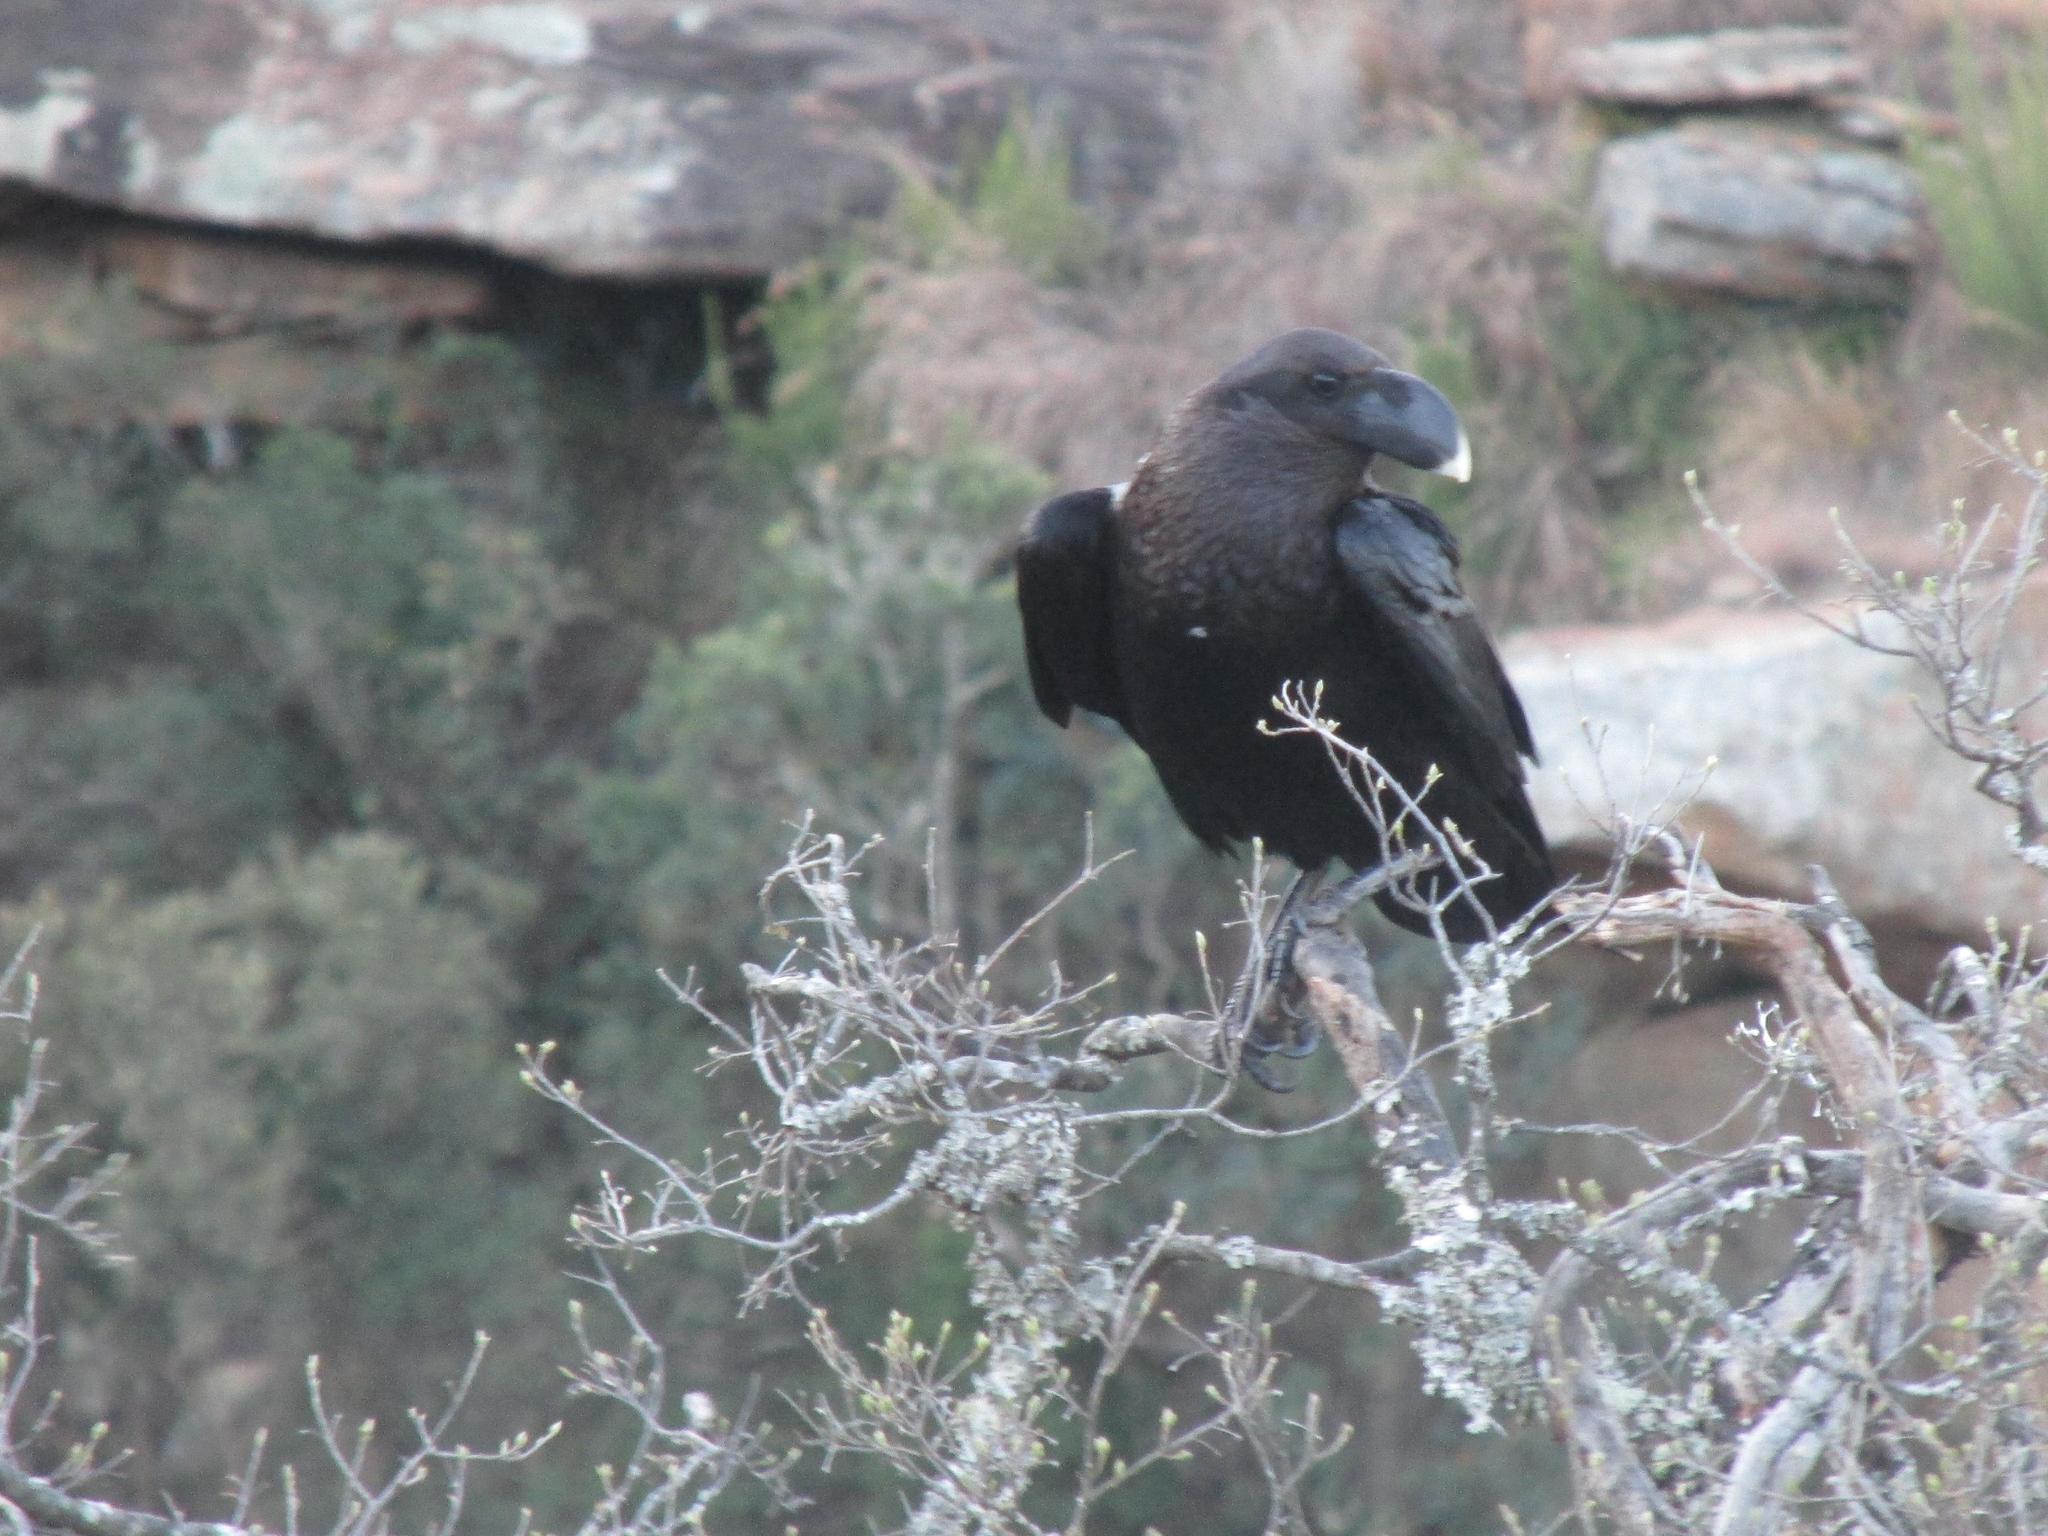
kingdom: Animalia
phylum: Chordata
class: Aves
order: Passeriformes
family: Corvidae
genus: Corvus
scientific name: Corvus albicollis
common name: White-necked raven
